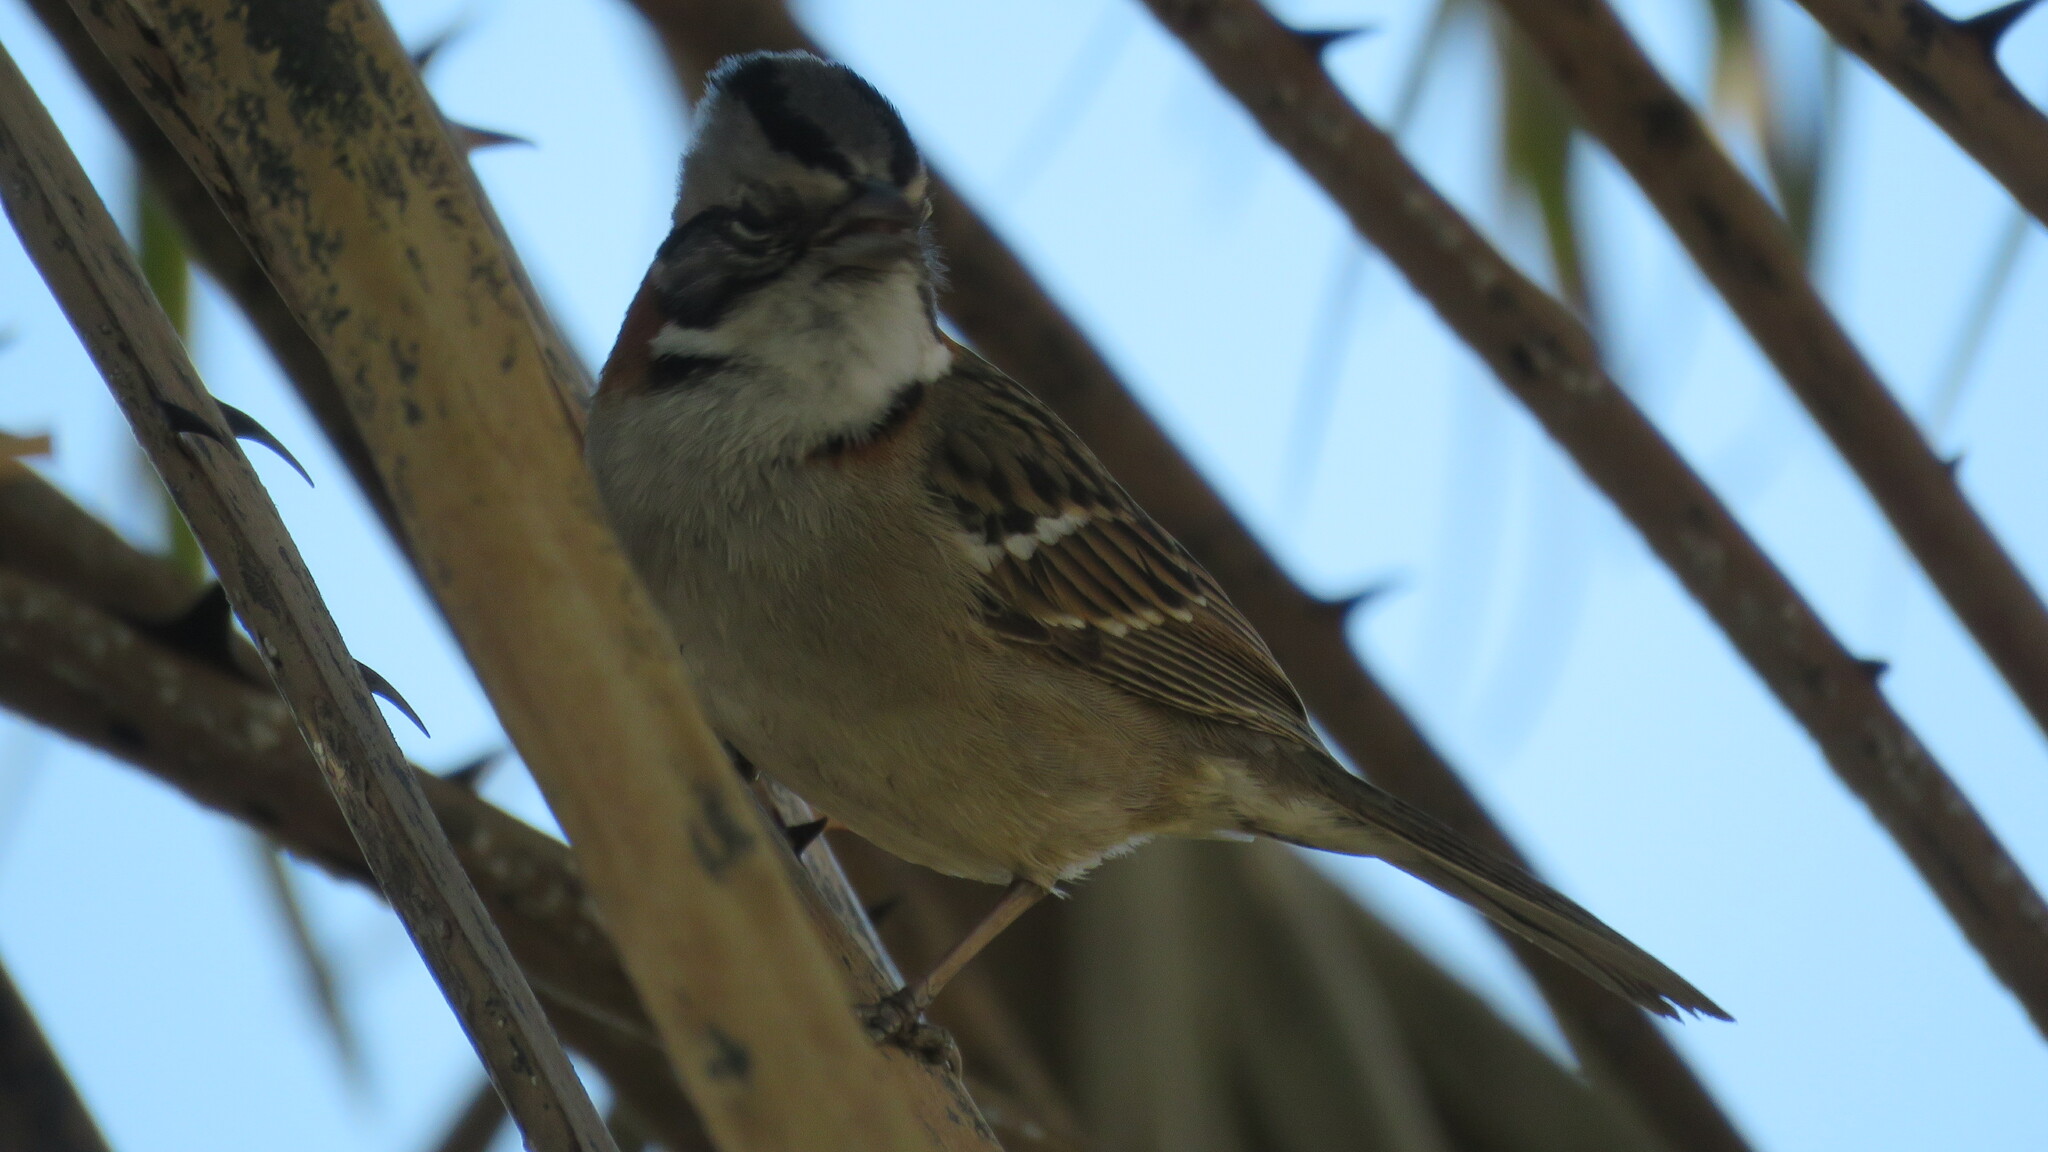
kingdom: Animalia
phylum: Chordata
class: Aves
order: Passeriformes
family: Passerellidae
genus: Zonotrichia
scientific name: Zonotrichia capensis
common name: Rufous-collared sparrow
